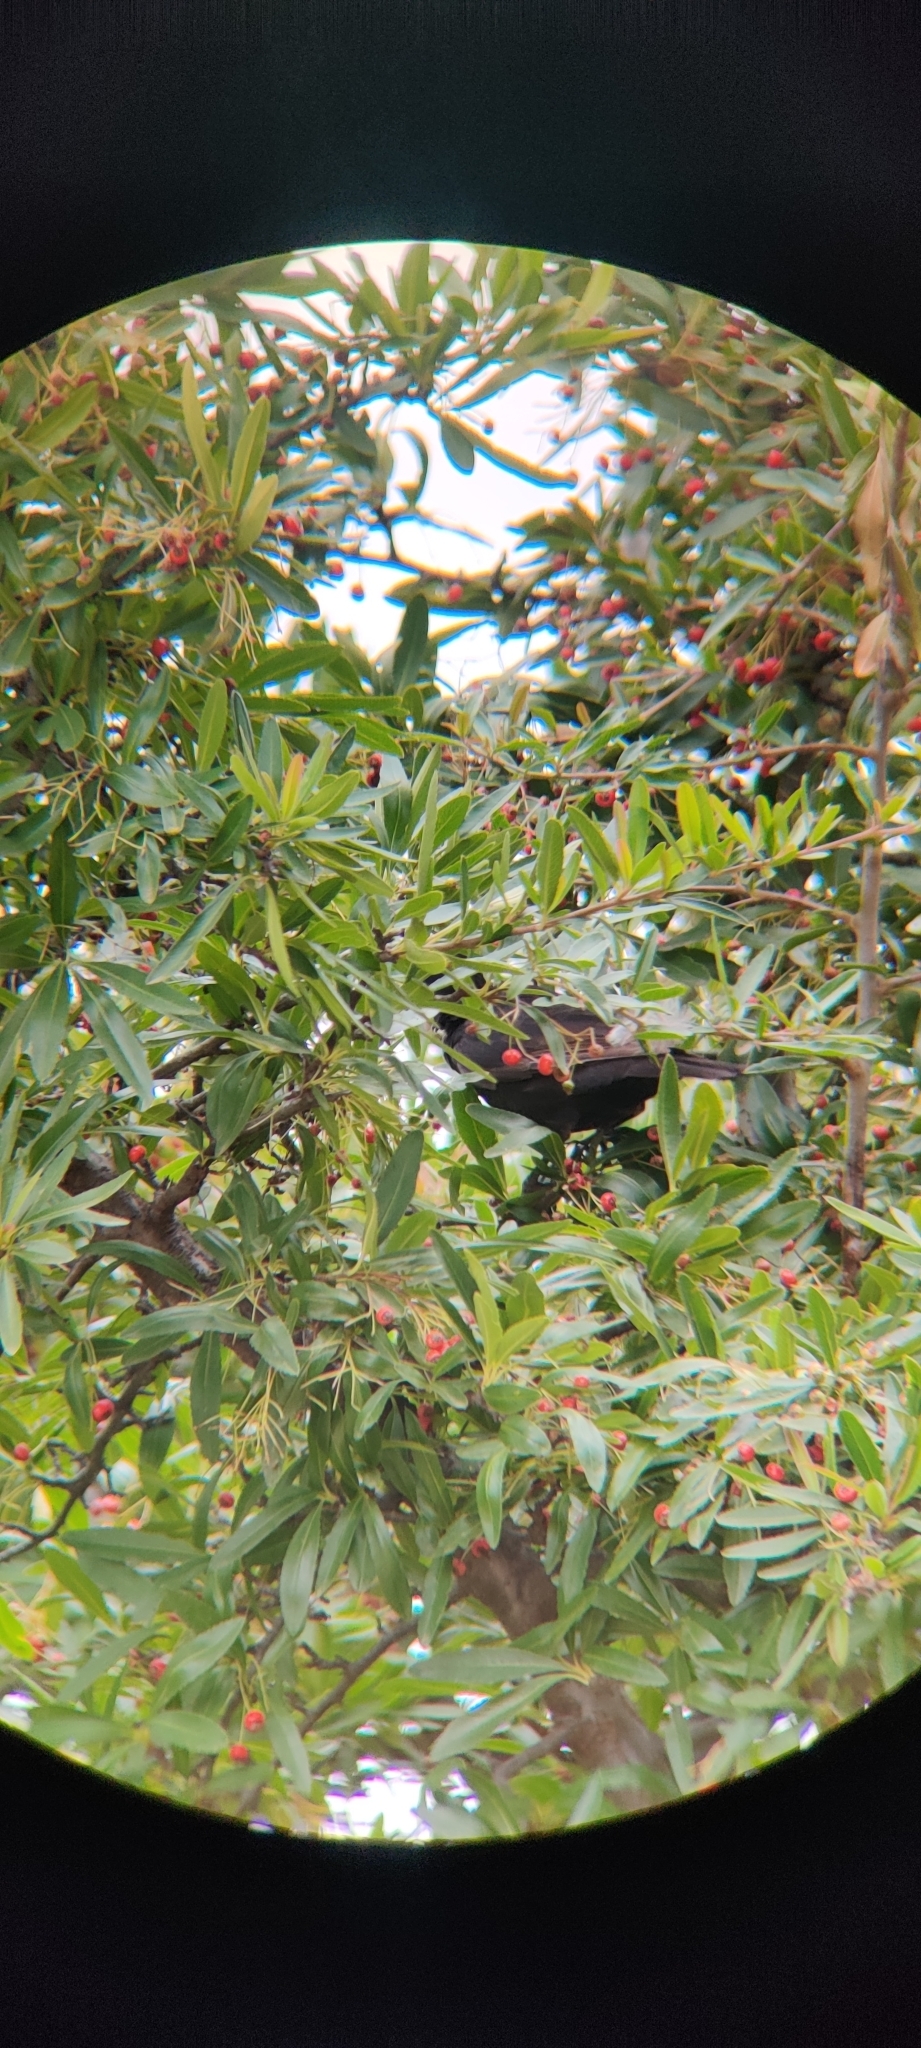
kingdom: Animalia
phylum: Chordata
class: Aves
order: Passeriformes
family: Turdidae
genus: Turdus
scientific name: Turdus merula
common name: Common blackbird
